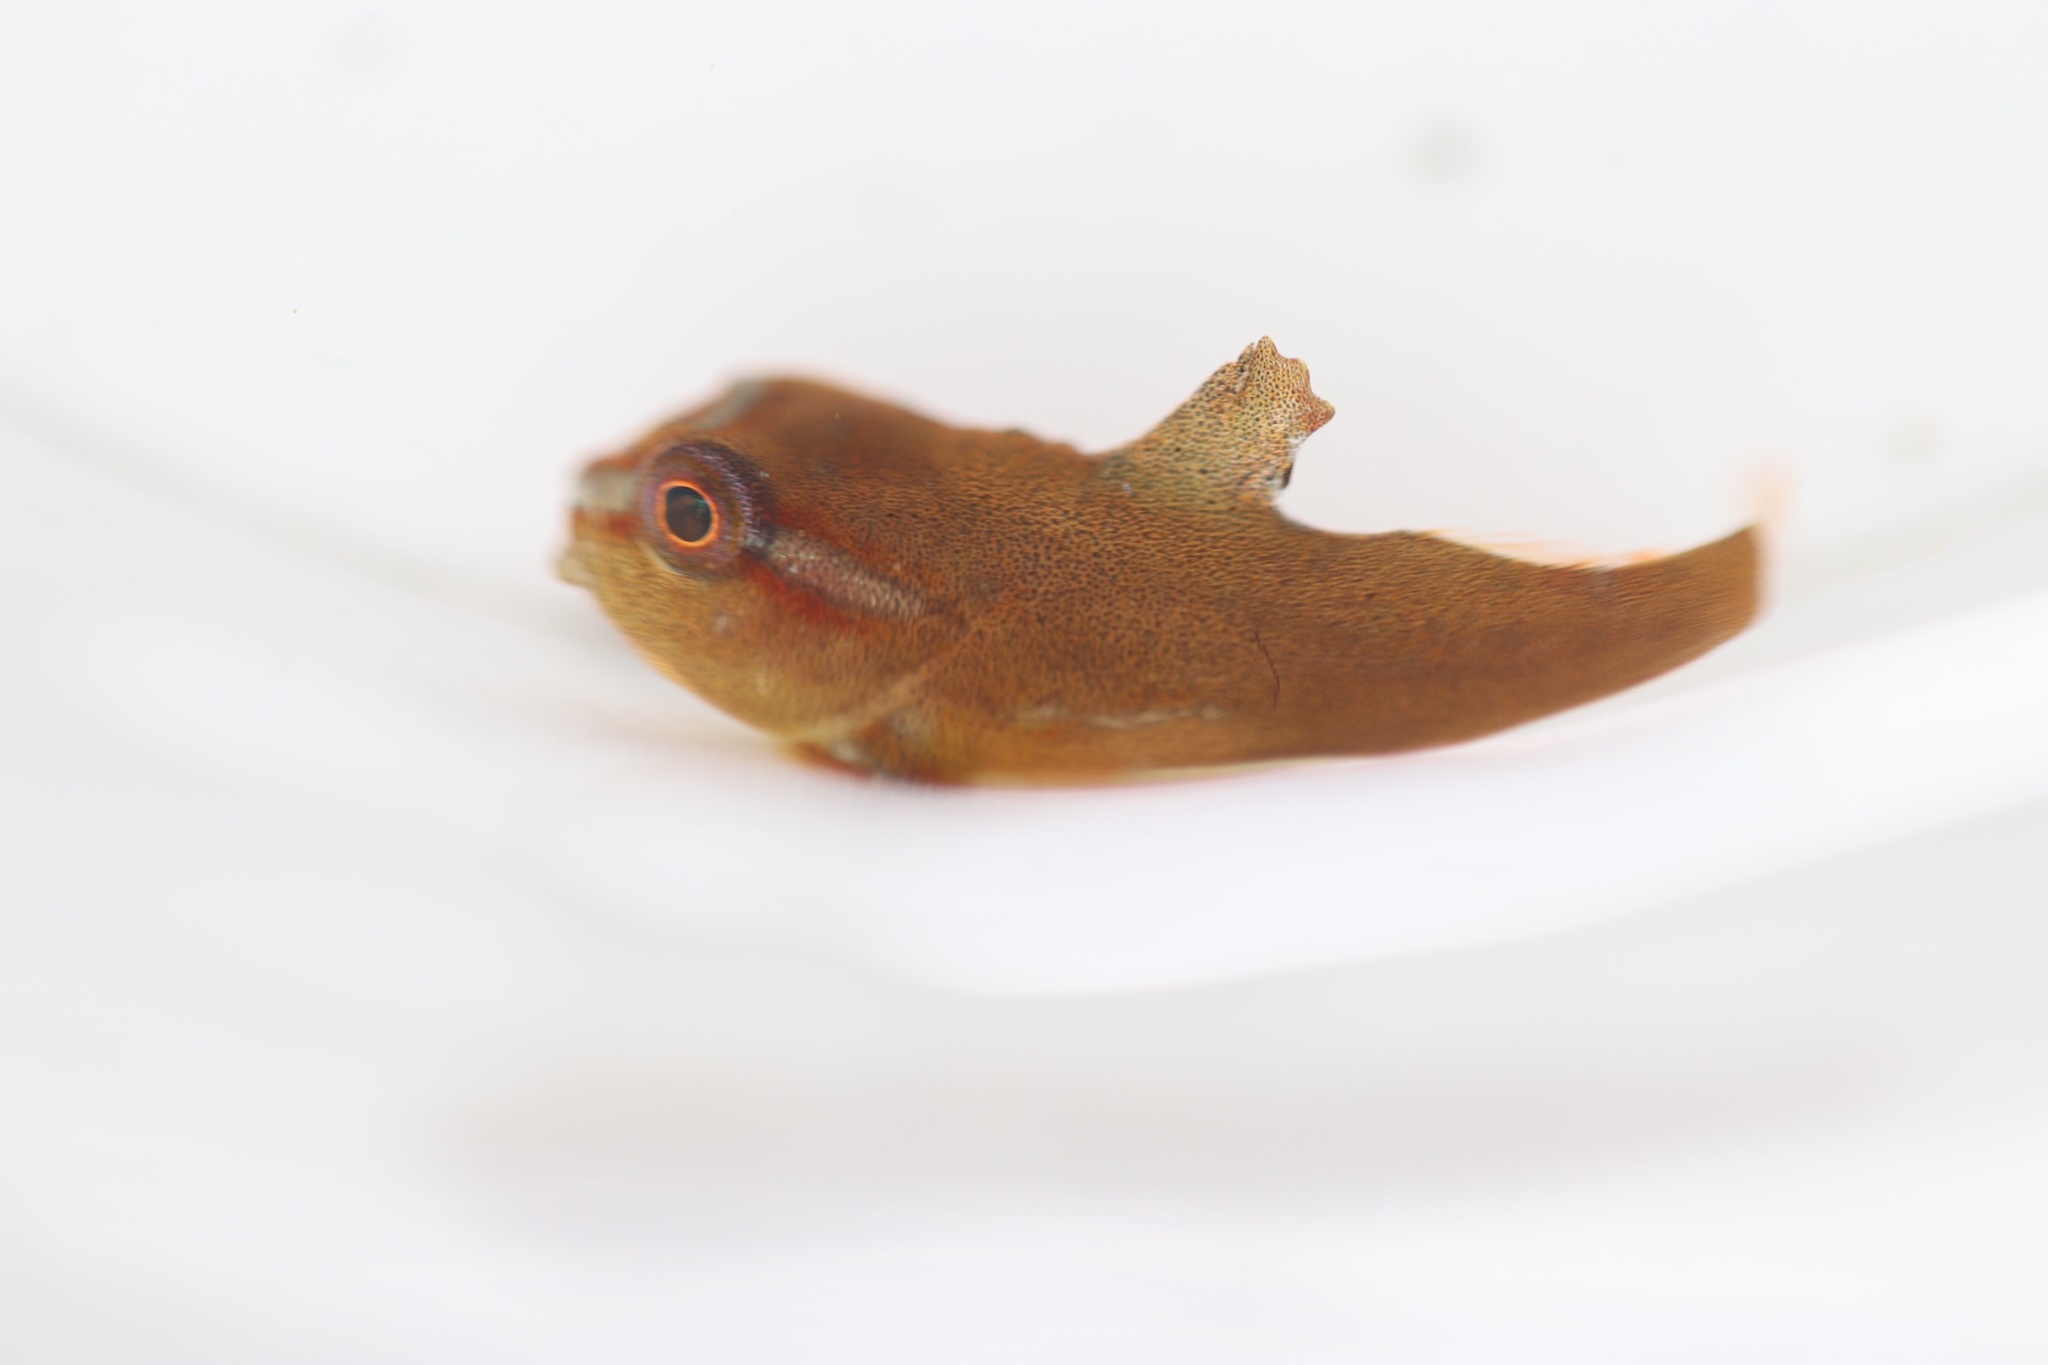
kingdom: Animalia
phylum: Chordata
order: Scorpaeniformes
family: Cyclopteridae
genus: Cyclopterus
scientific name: Cyclopterus lumpus
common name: Lumpsucker
